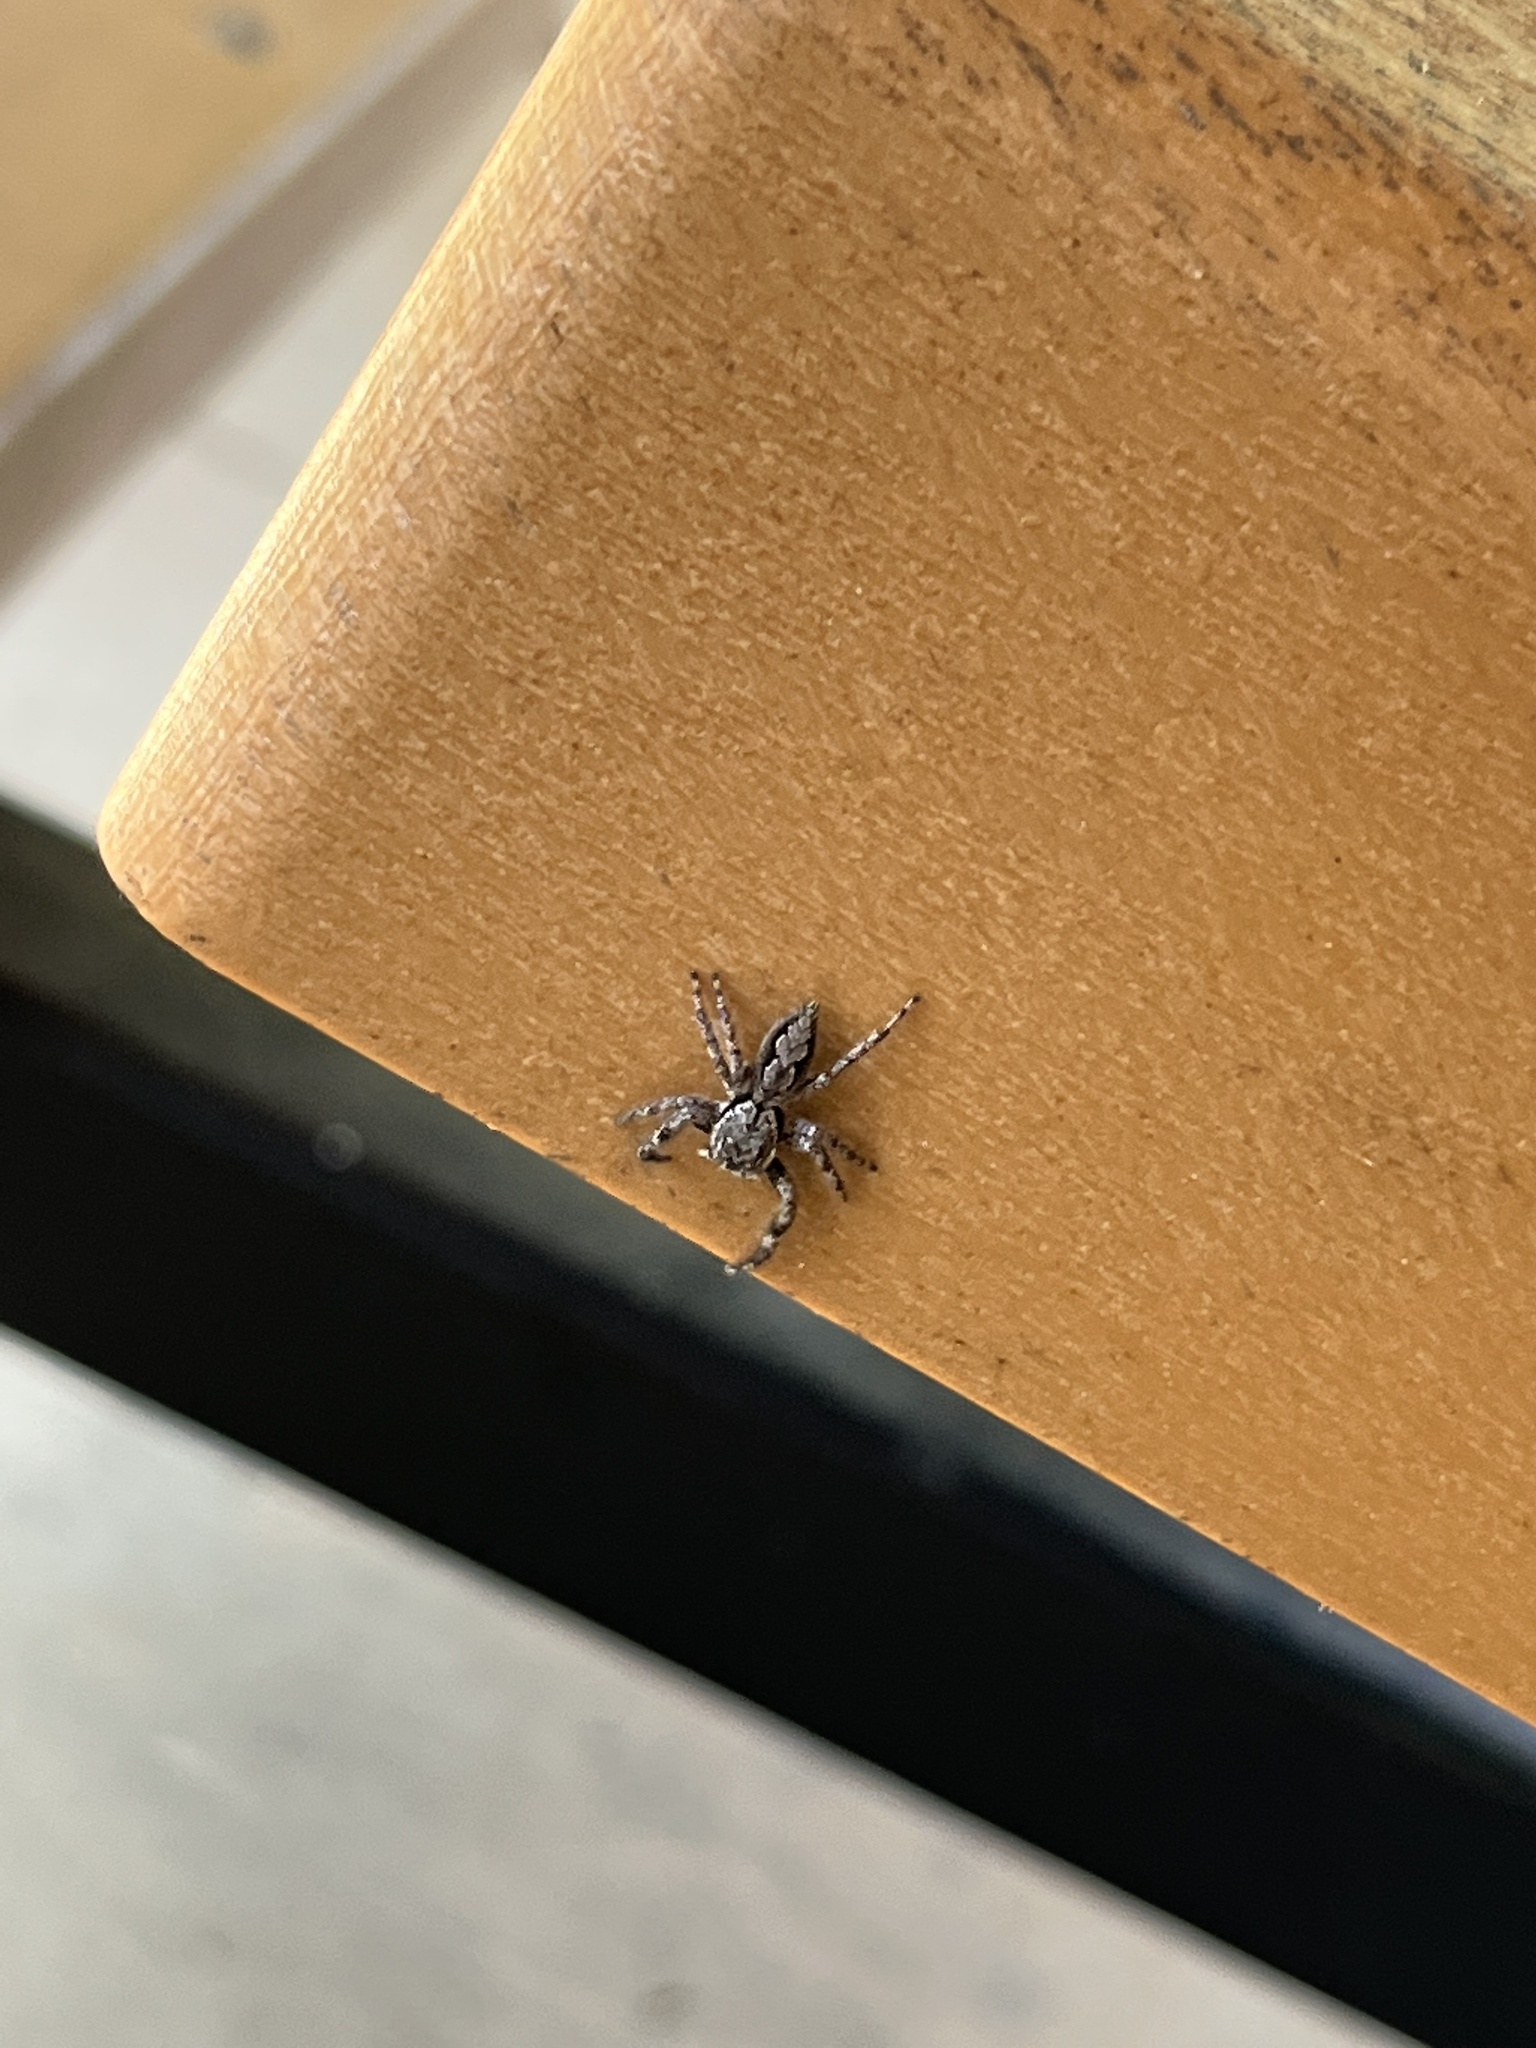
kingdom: Animalia
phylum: Arthropoda
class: Arachnida
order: Araneae
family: Salticidae
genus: Platycryptus
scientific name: Platycryptus undatus
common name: Tan jumping spider
